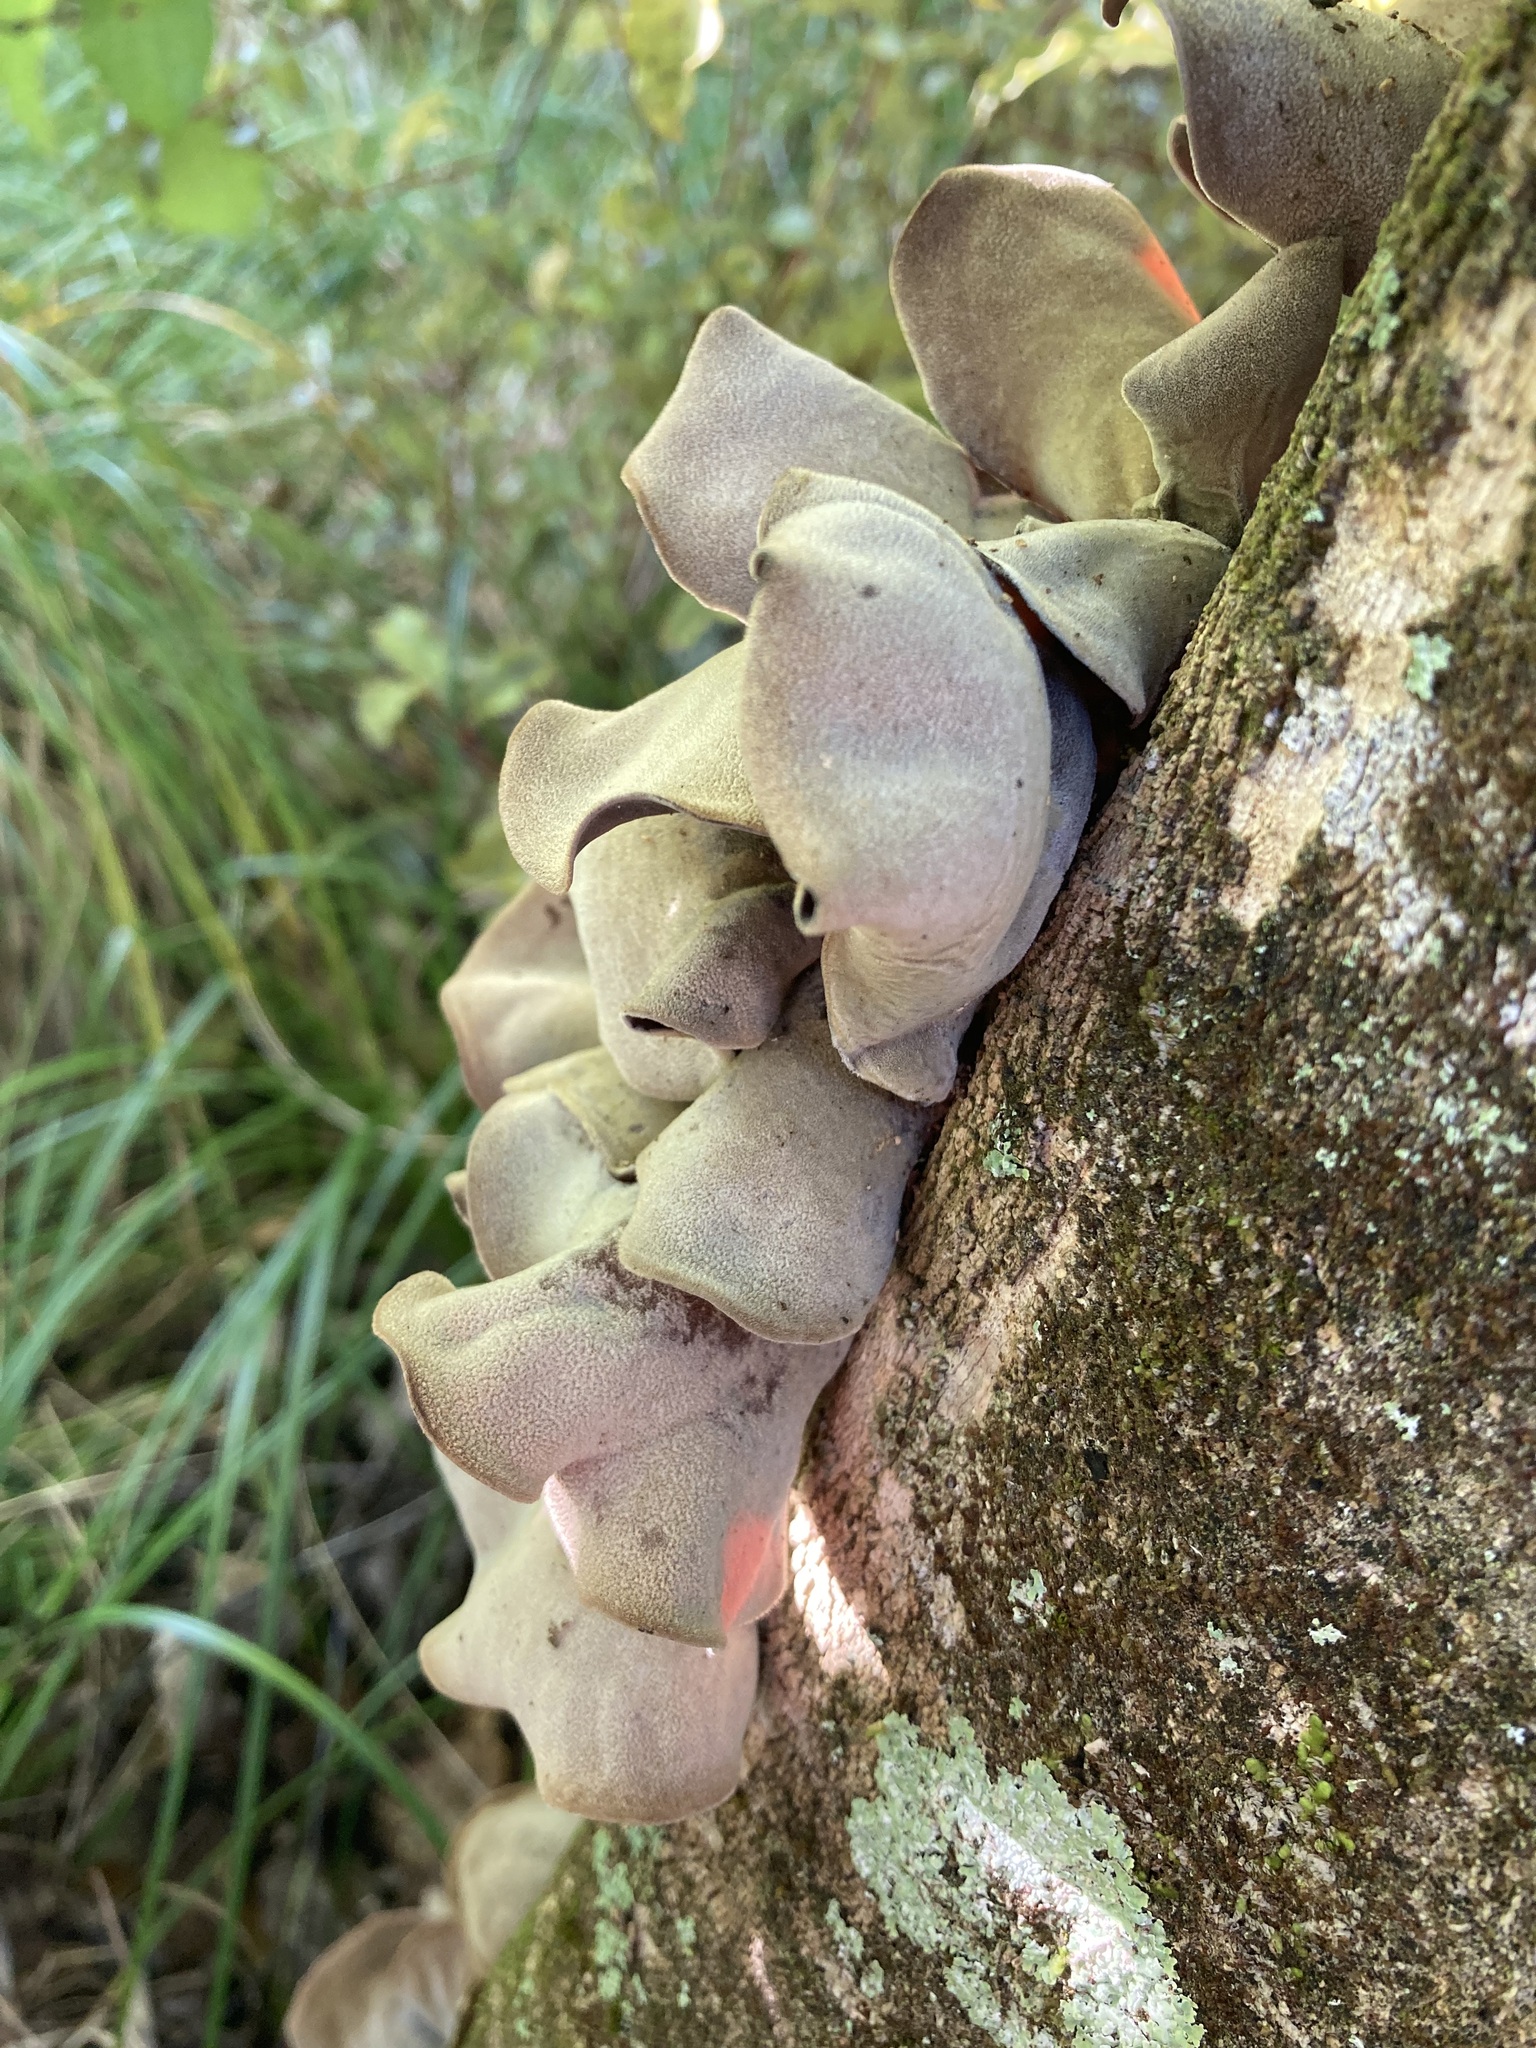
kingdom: Fungi
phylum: Basidiomycota
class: Agaricomycetes
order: Auriculariales
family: Auriculariaceae
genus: Auricularia
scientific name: Auricularia cornea
